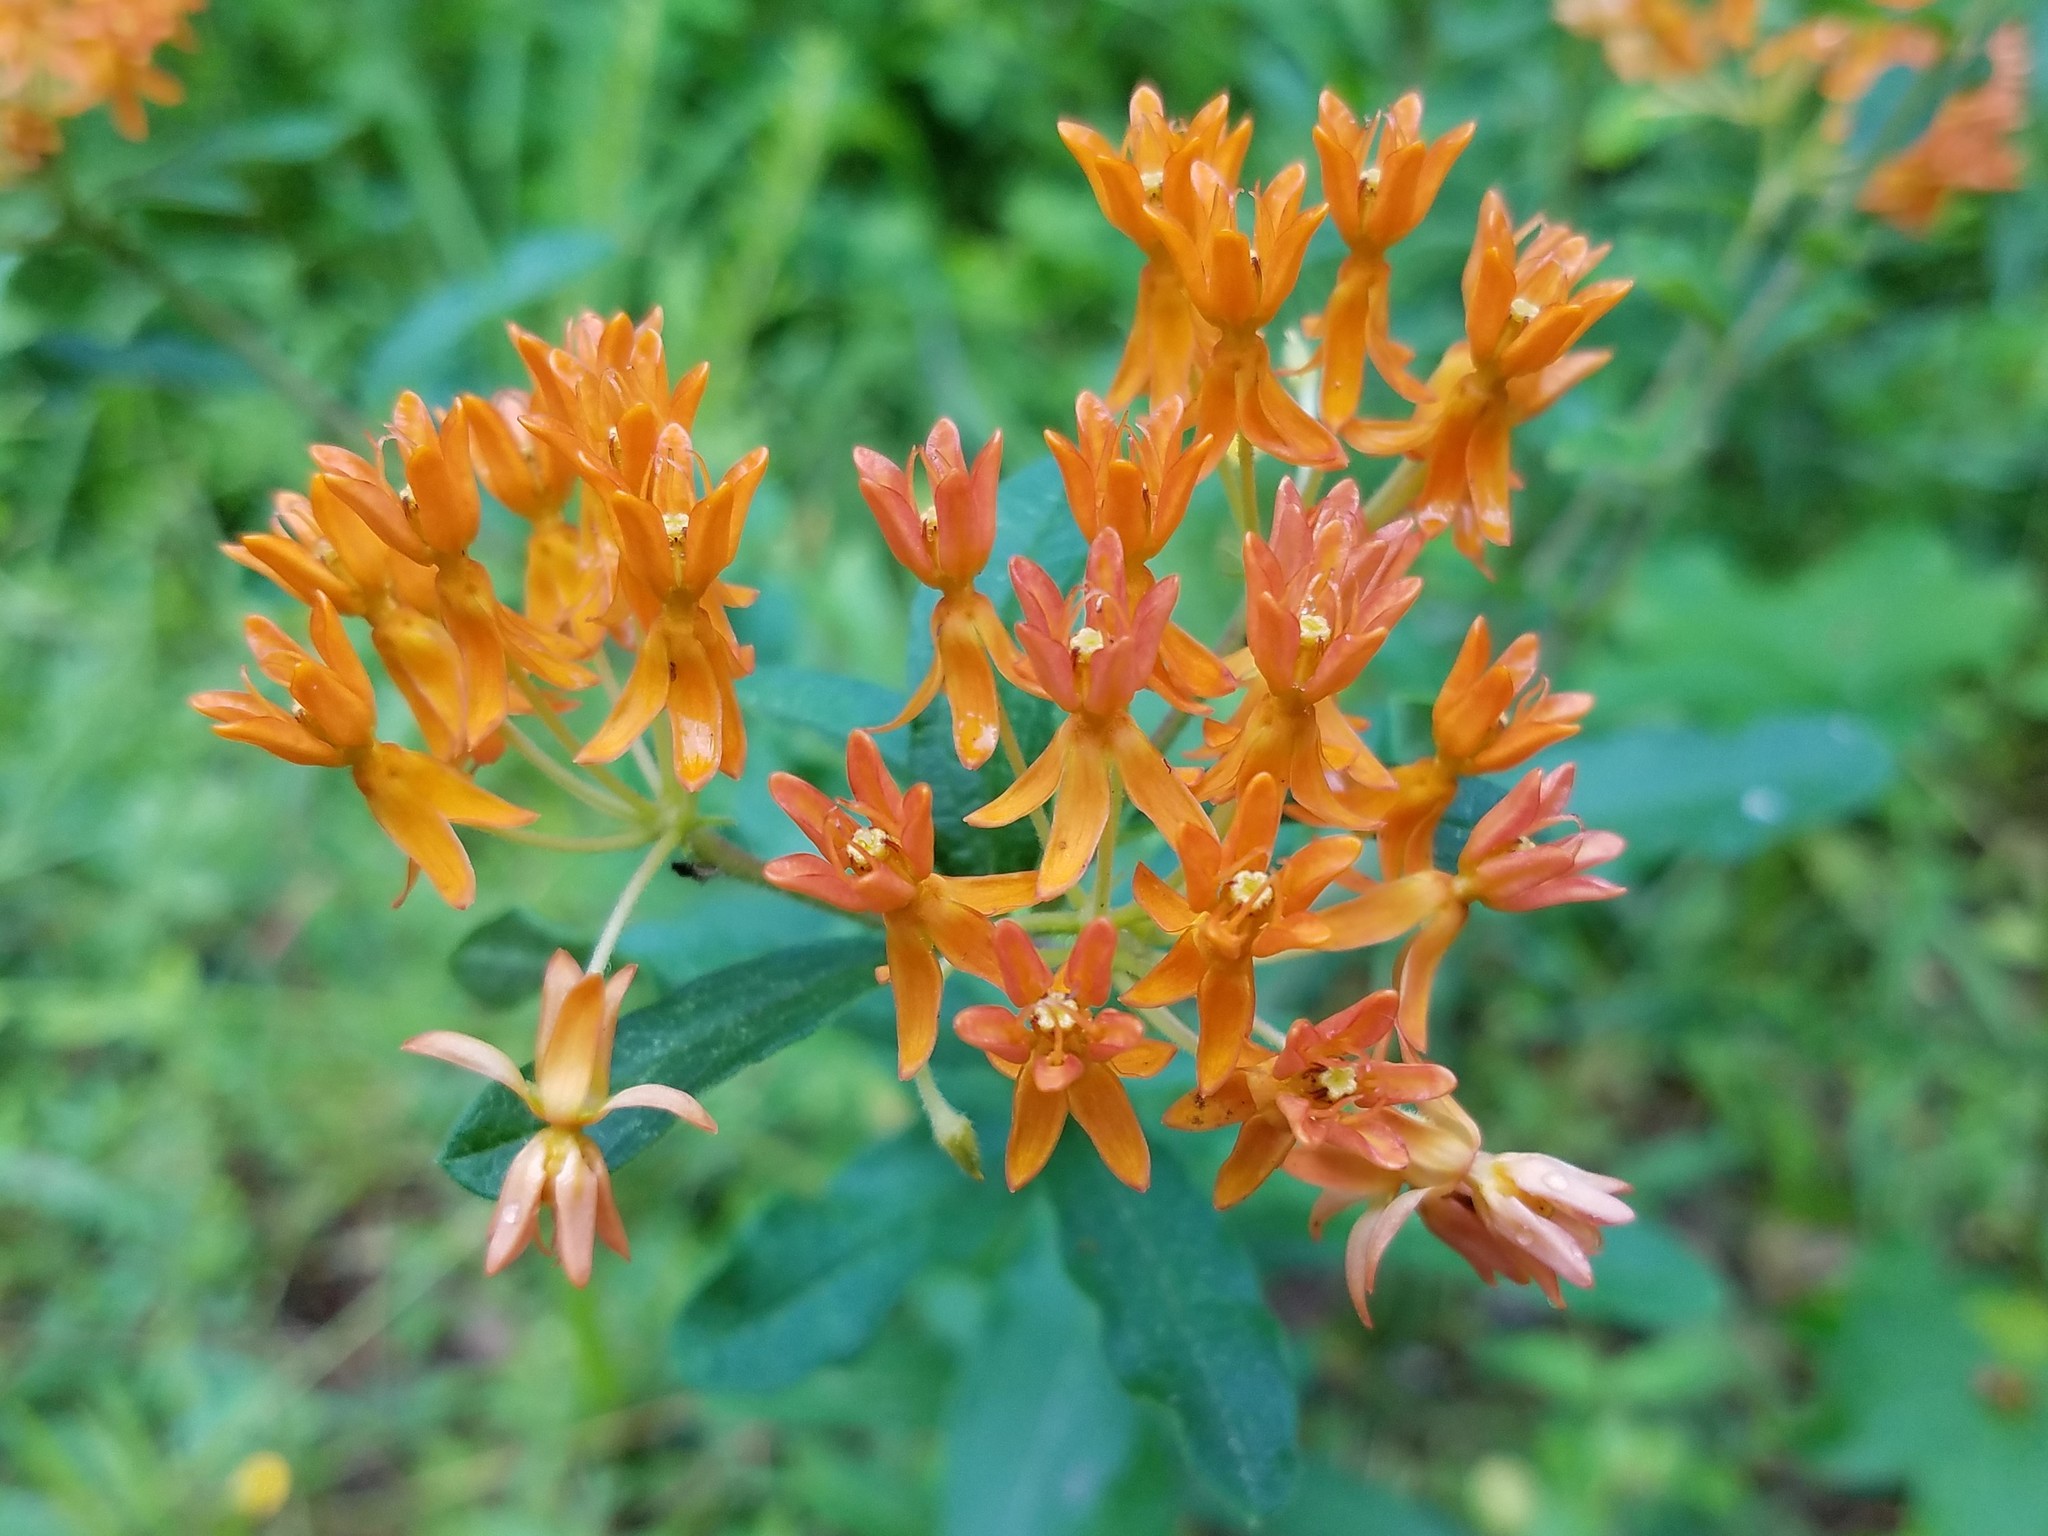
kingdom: Plantae
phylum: Tracheophyta
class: Magnoliopsida
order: Gentianales
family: Apocynaceae
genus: Asclepias
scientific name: Asclepias tuberosa
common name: Butterfly milkweed
